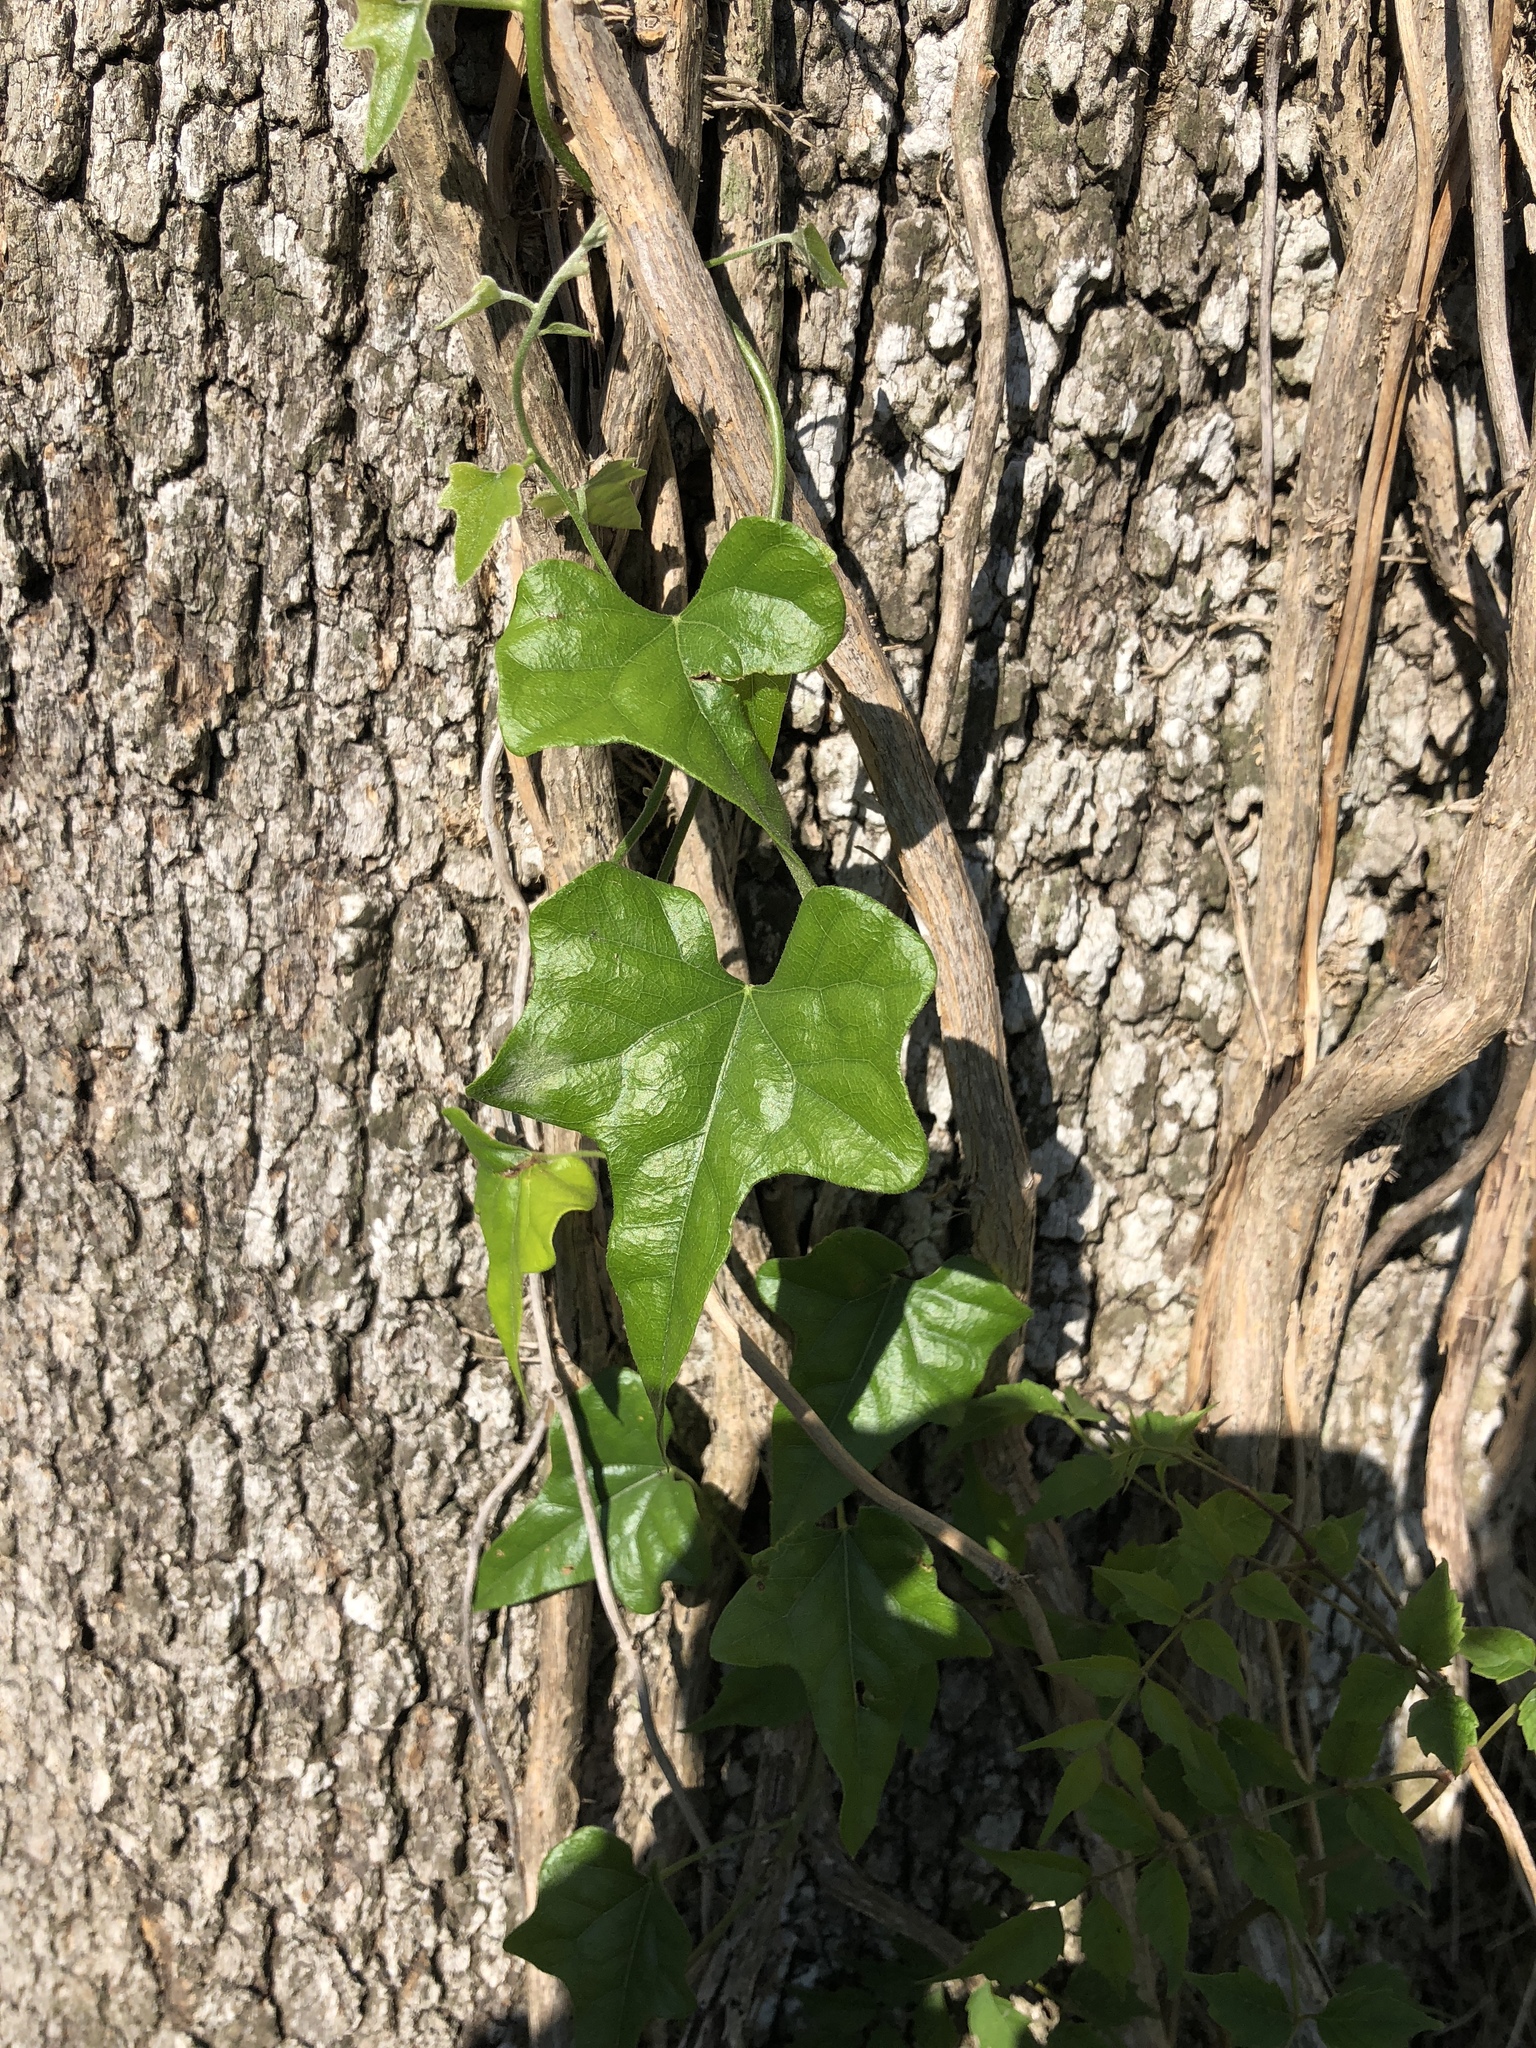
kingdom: Plantae
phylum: Tracheophyta
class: Magnoliopsida
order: Ranunculales
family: Menispermaceae
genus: Cocculus
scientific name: Cocculus carolinus
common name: Carolina moonseed
